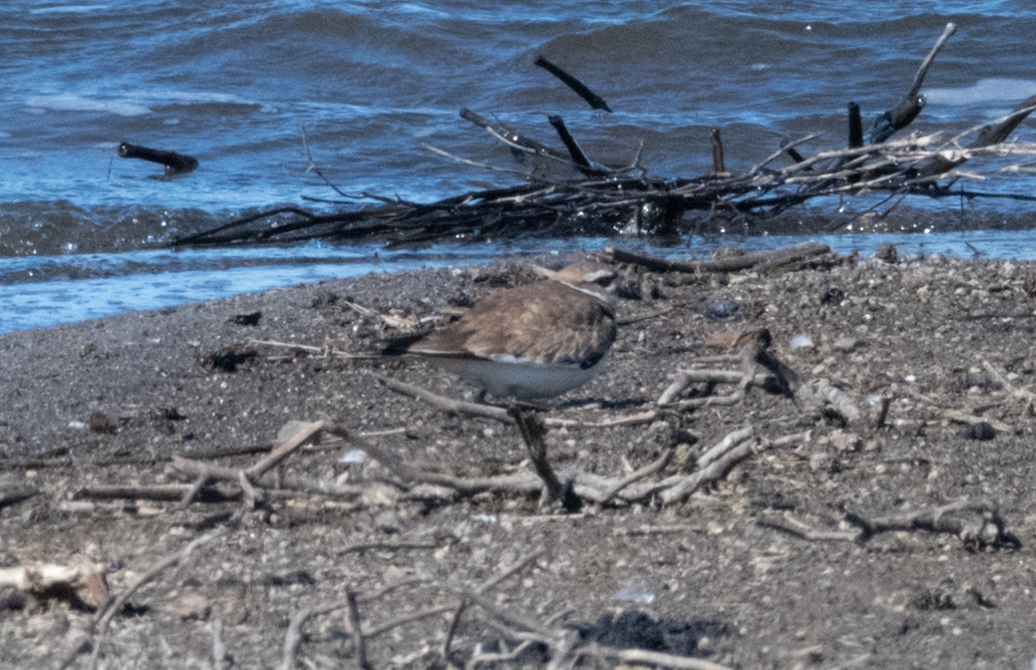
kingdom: Animalia
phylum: Chordata
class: Aves
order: Charadriiformes
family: Charadriidae
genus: Charadrius
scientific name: Charadrius vociferus
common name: Killdeer
